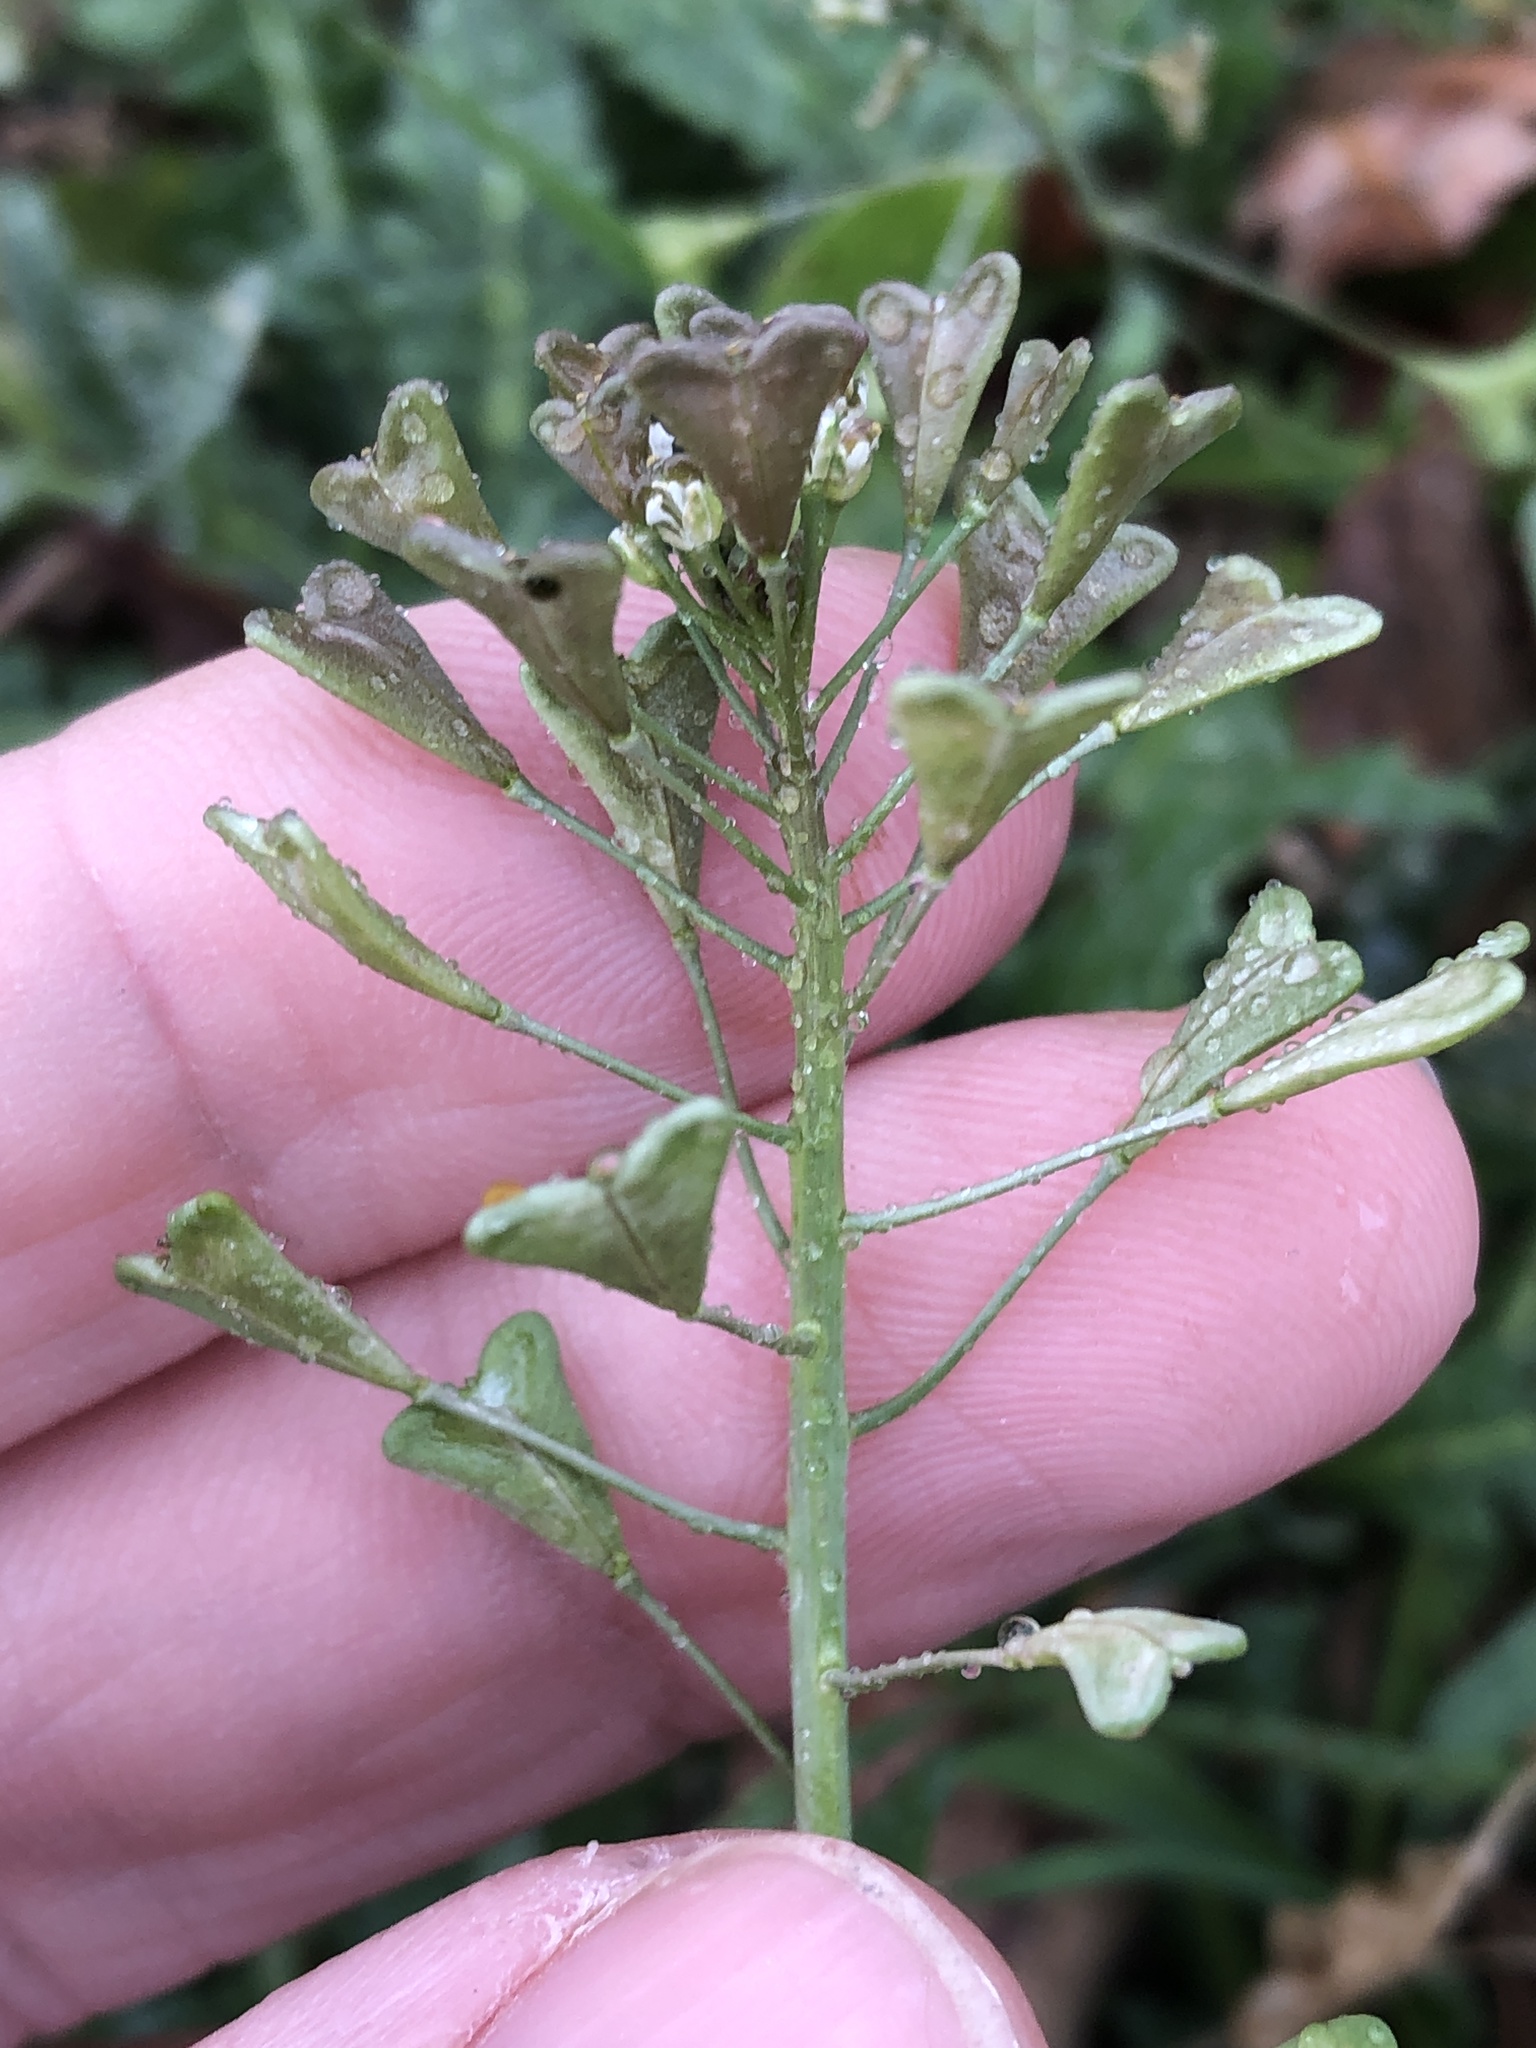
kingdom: Plantae
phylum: Tracheophyta
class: Magnoliopsida
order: Brassicales
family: Brassicaceae
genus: Capsella
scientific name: Capsella bursa-pastoris
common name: Shepherd's purse
